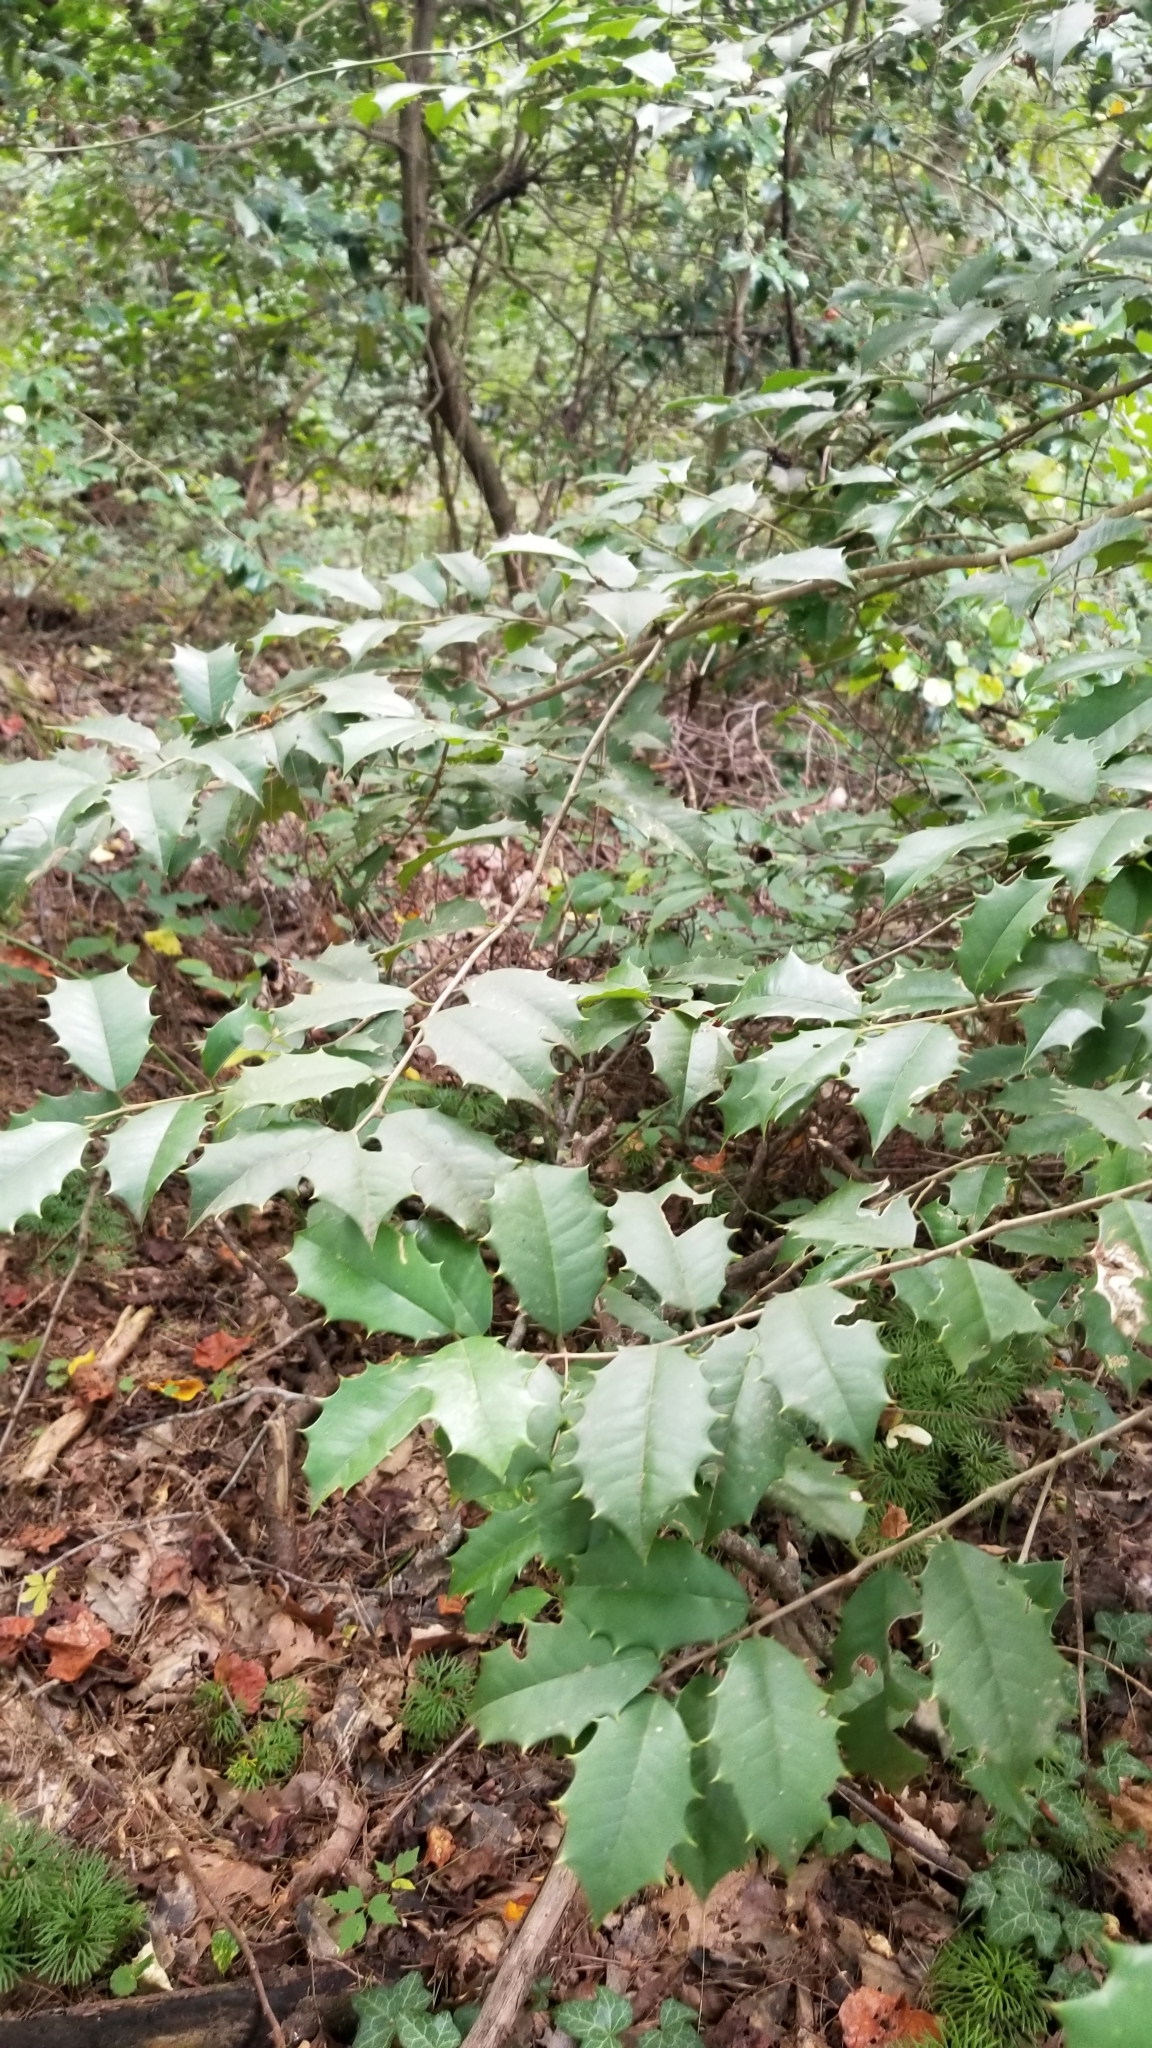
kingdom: Plantae
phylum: Tracheophyta
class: Magnoliopsida
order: Aquifoliales
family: Aquifoliaceae
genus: Ilex
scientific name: Ilex opaca
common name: American holly
